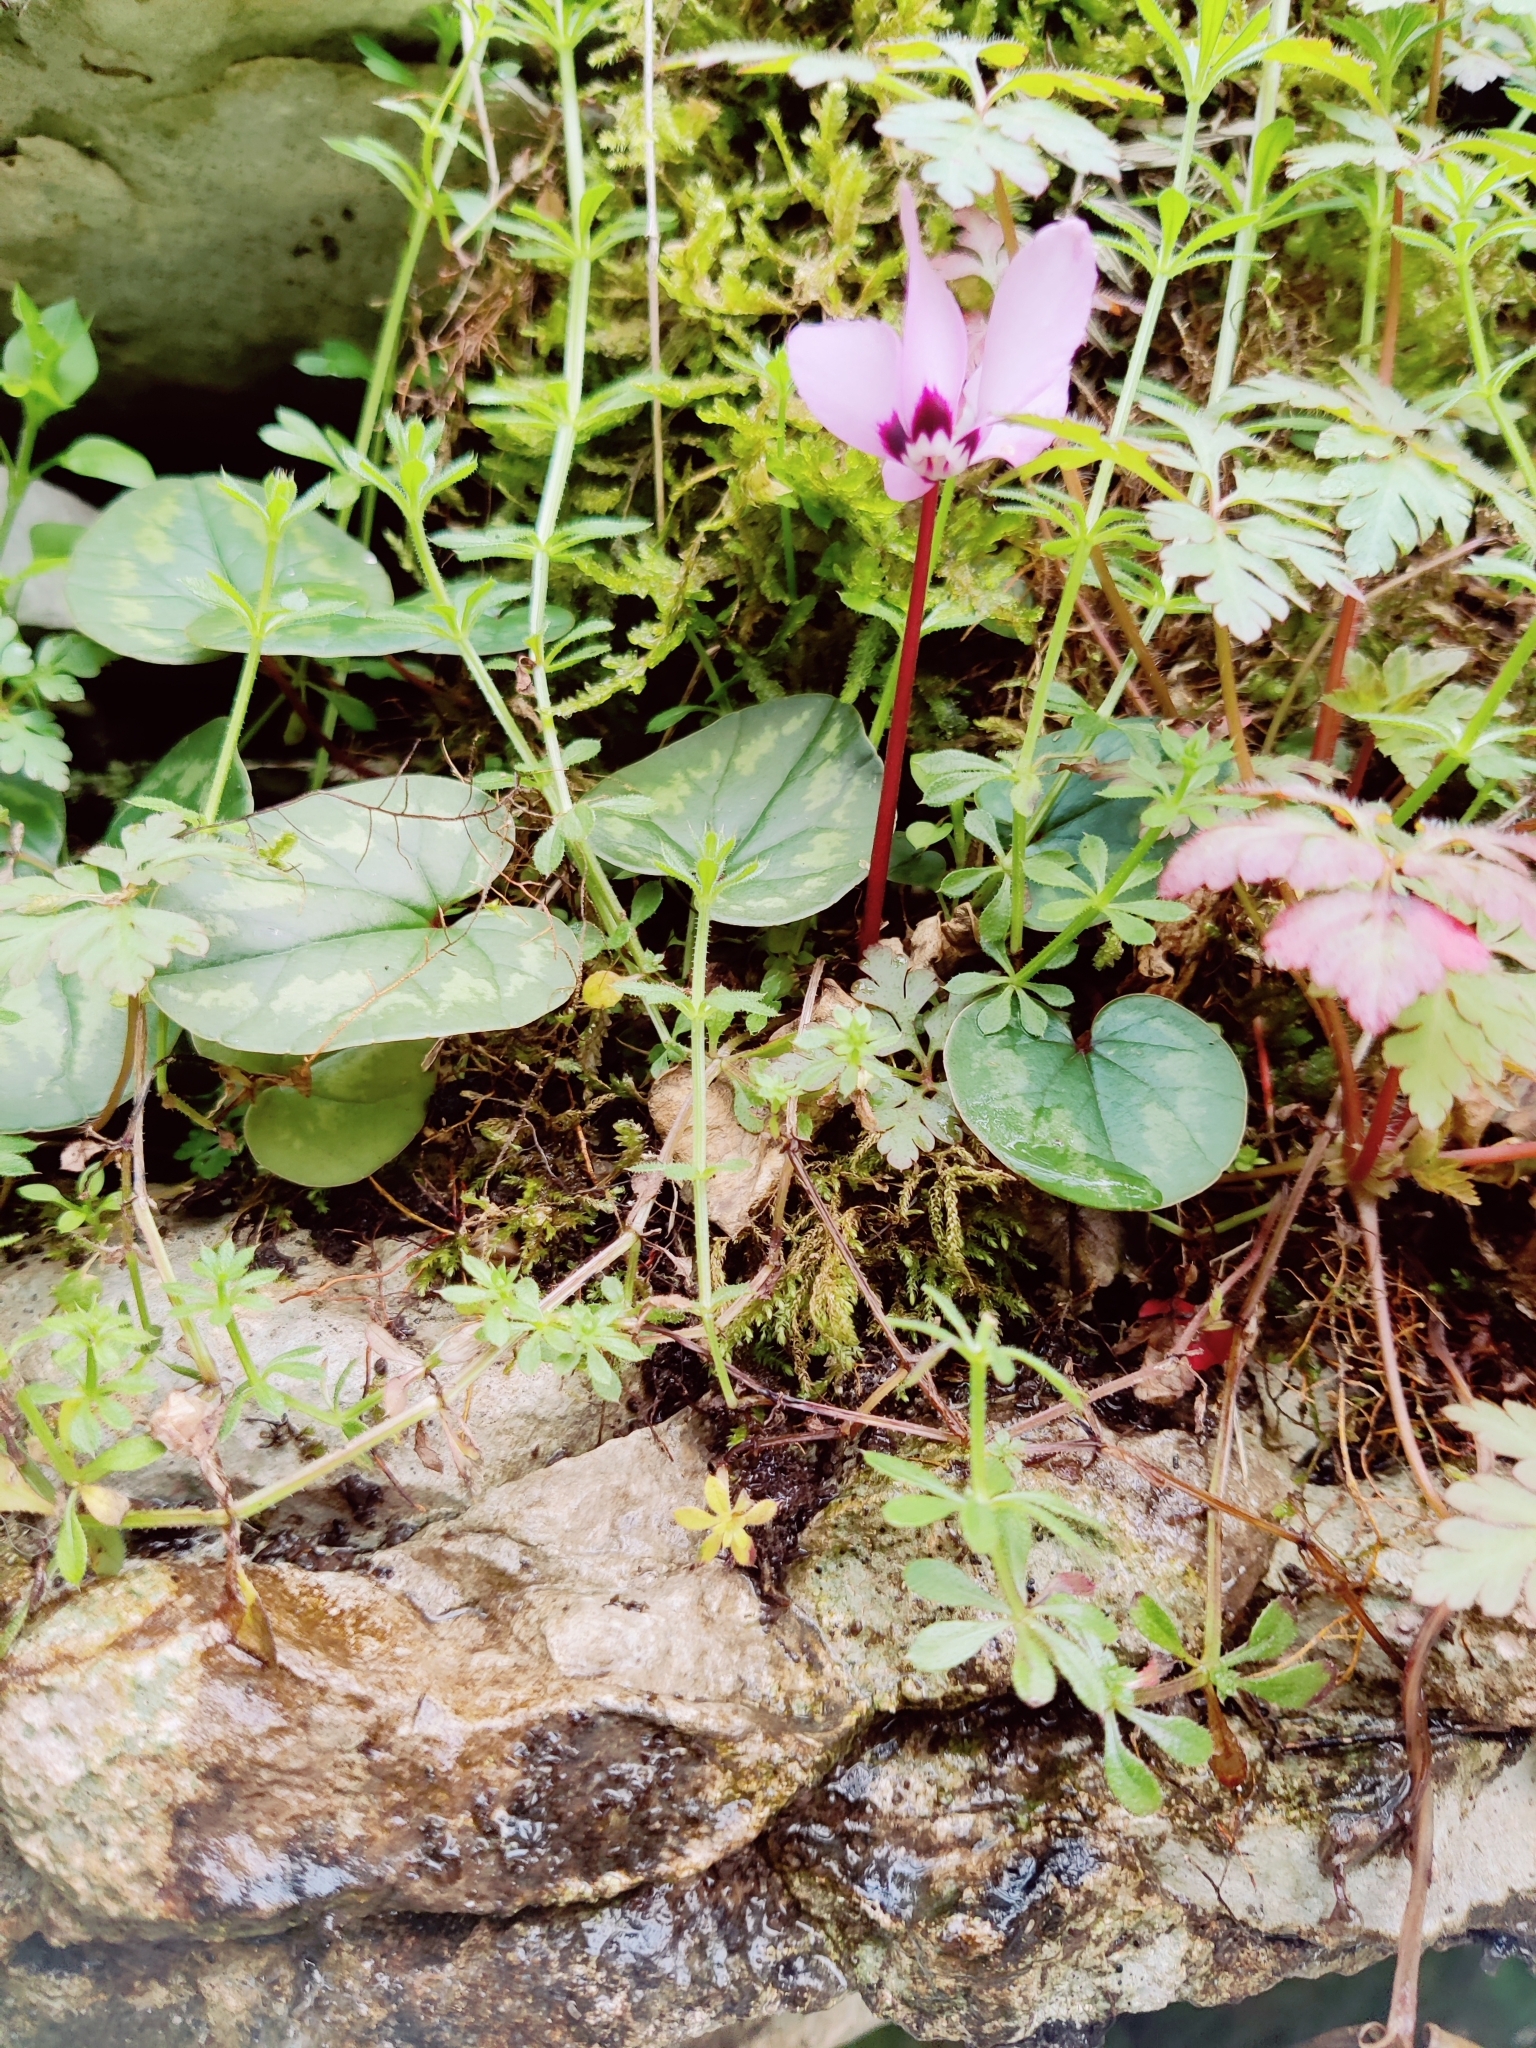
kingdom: Plantae
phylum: Tracheophyta
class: Magnoliopsida
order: Ericales
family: Primulaceae
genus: Cyclamen
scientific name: Cyclamen coum
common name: Eastern sowbread
